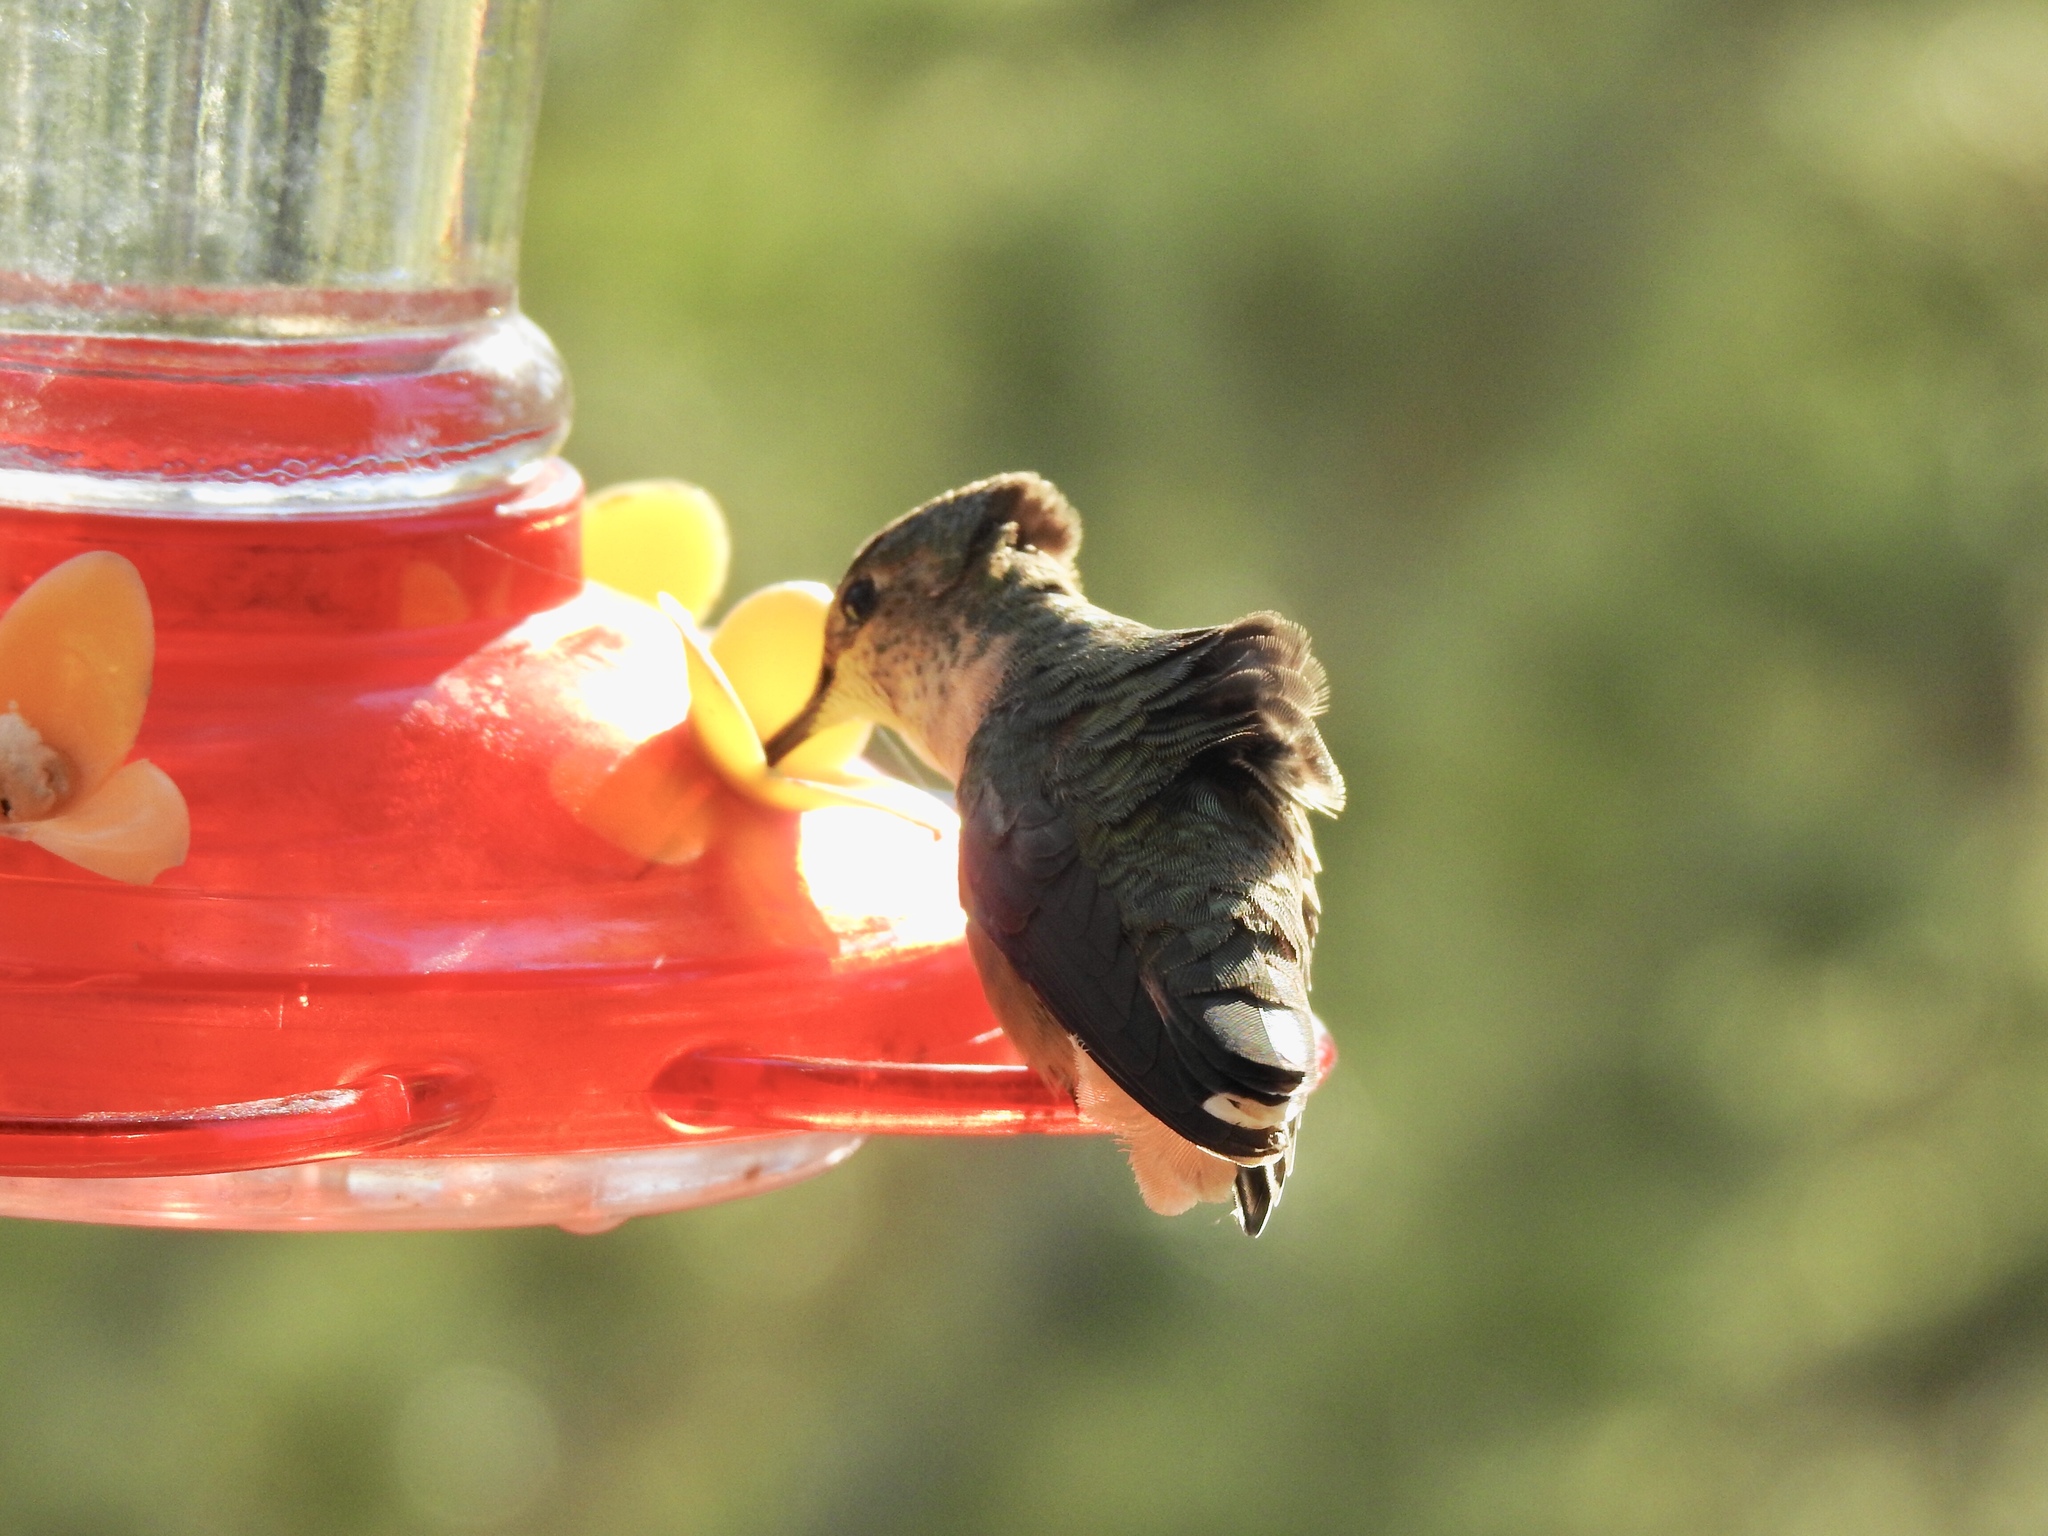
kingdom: Animalia
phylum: Chordata
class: Aves
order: Apodiformes
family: Trochilidae
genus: Selasphorus
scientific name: Selasphorus platycercus
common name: Broad-tailed hummingbird
